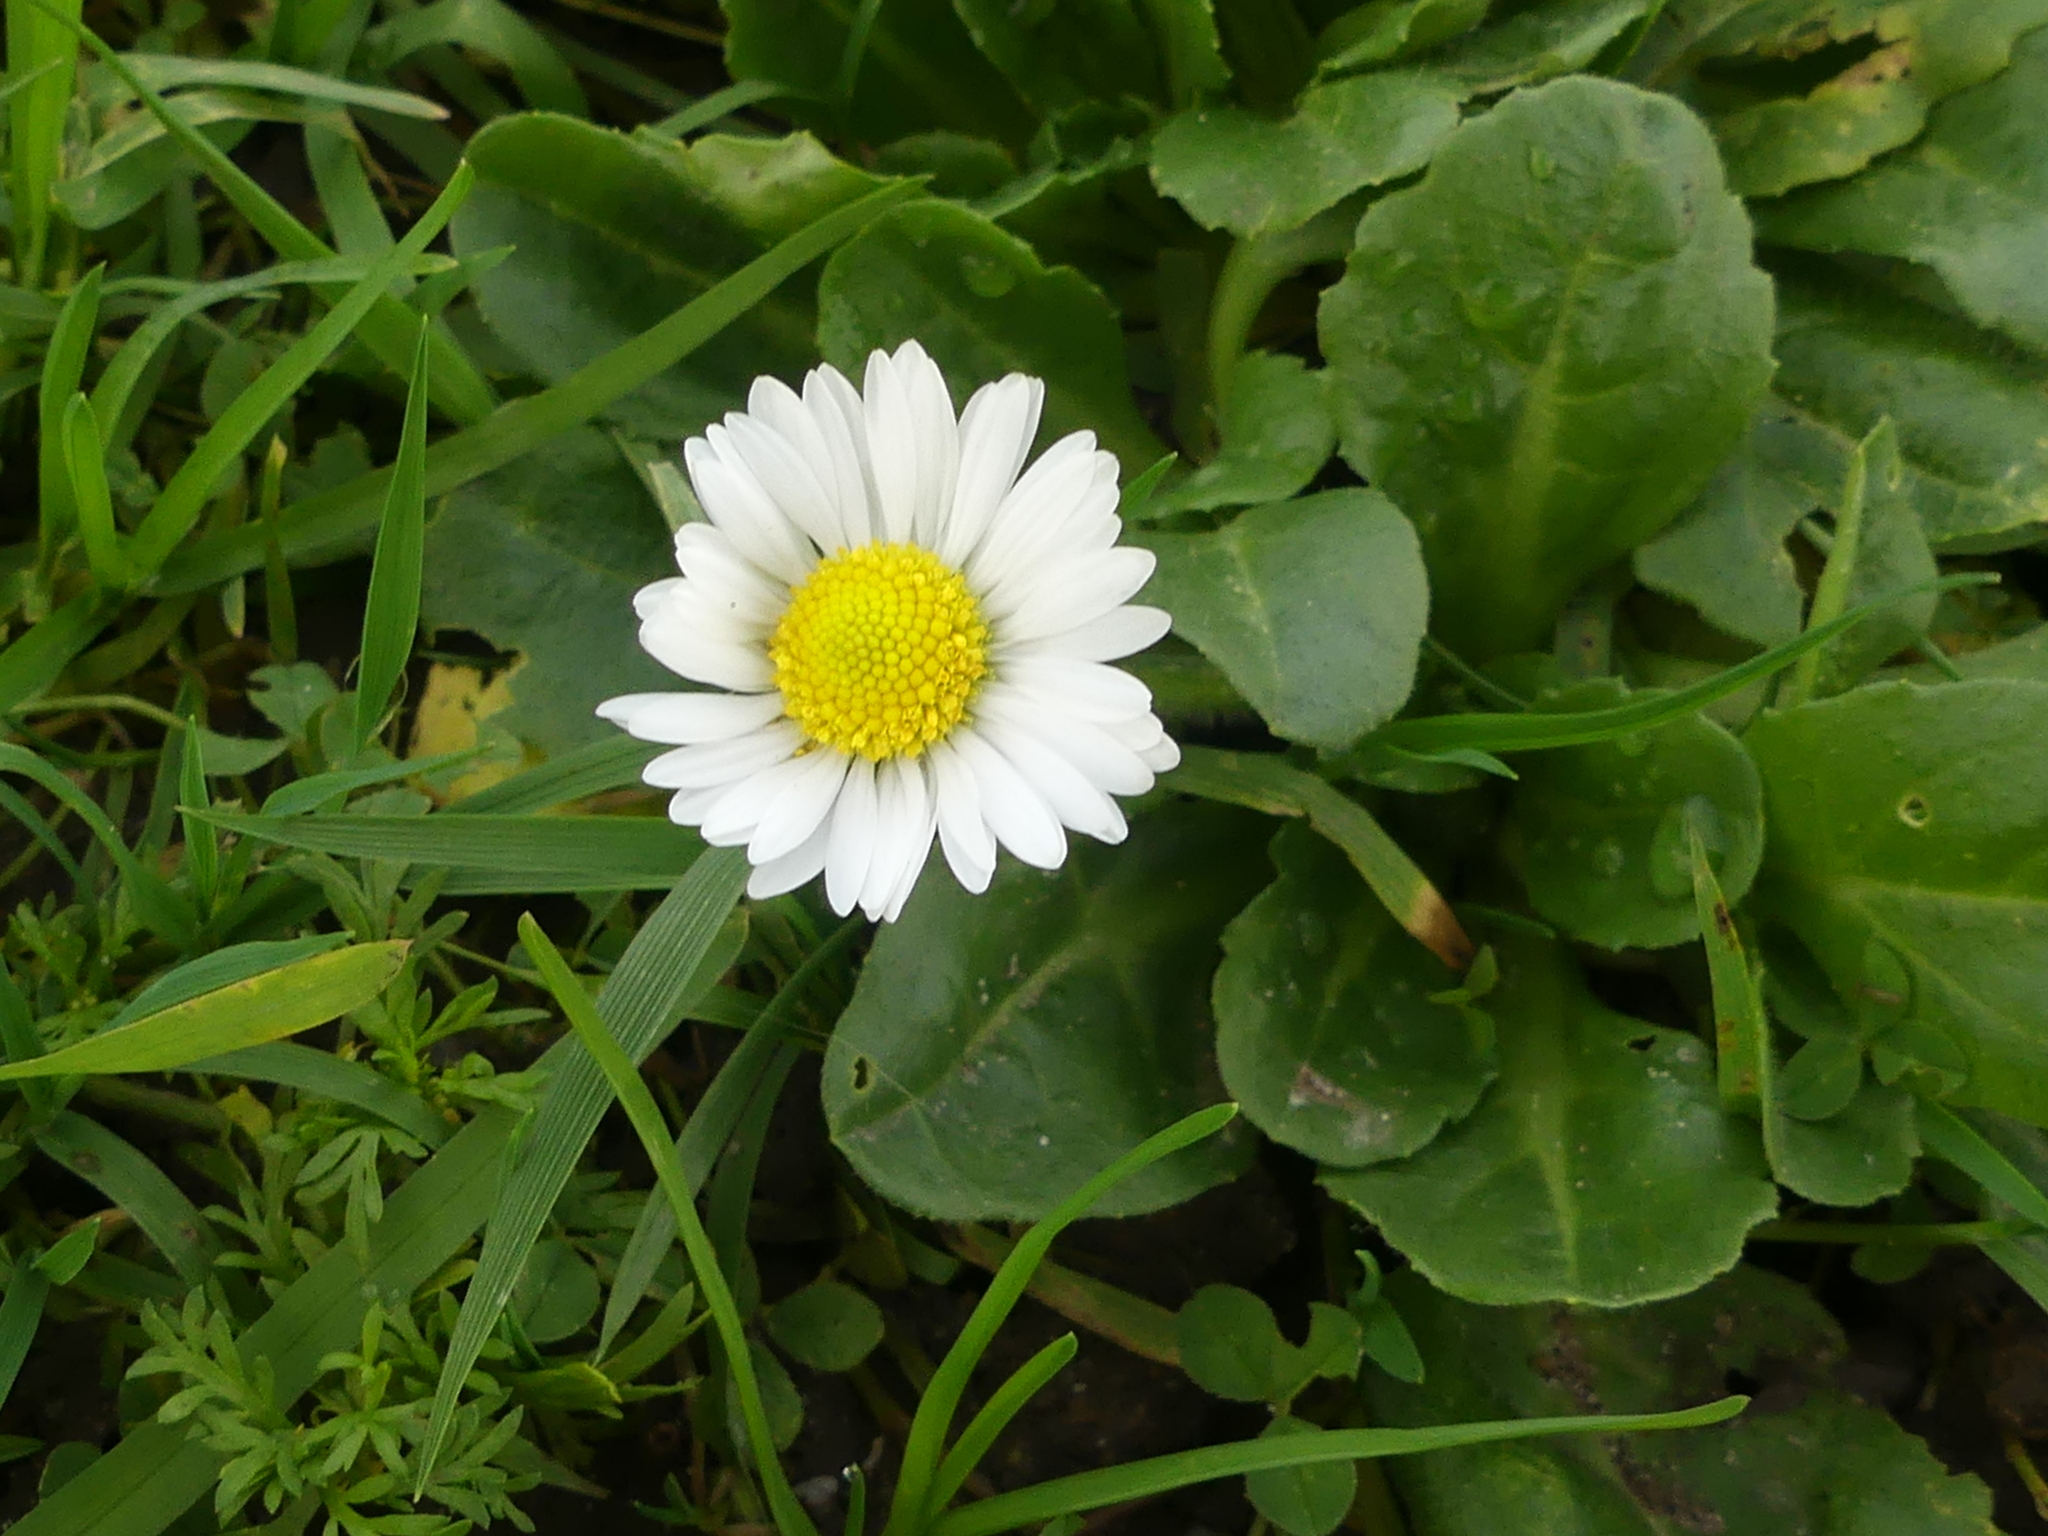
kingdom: Plantae
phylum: Tracheophyta
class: Magnoliopsida
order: Asterales
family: Asteraceae
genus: Bellis
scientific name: Bellis perennis
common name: Lawndaisy
